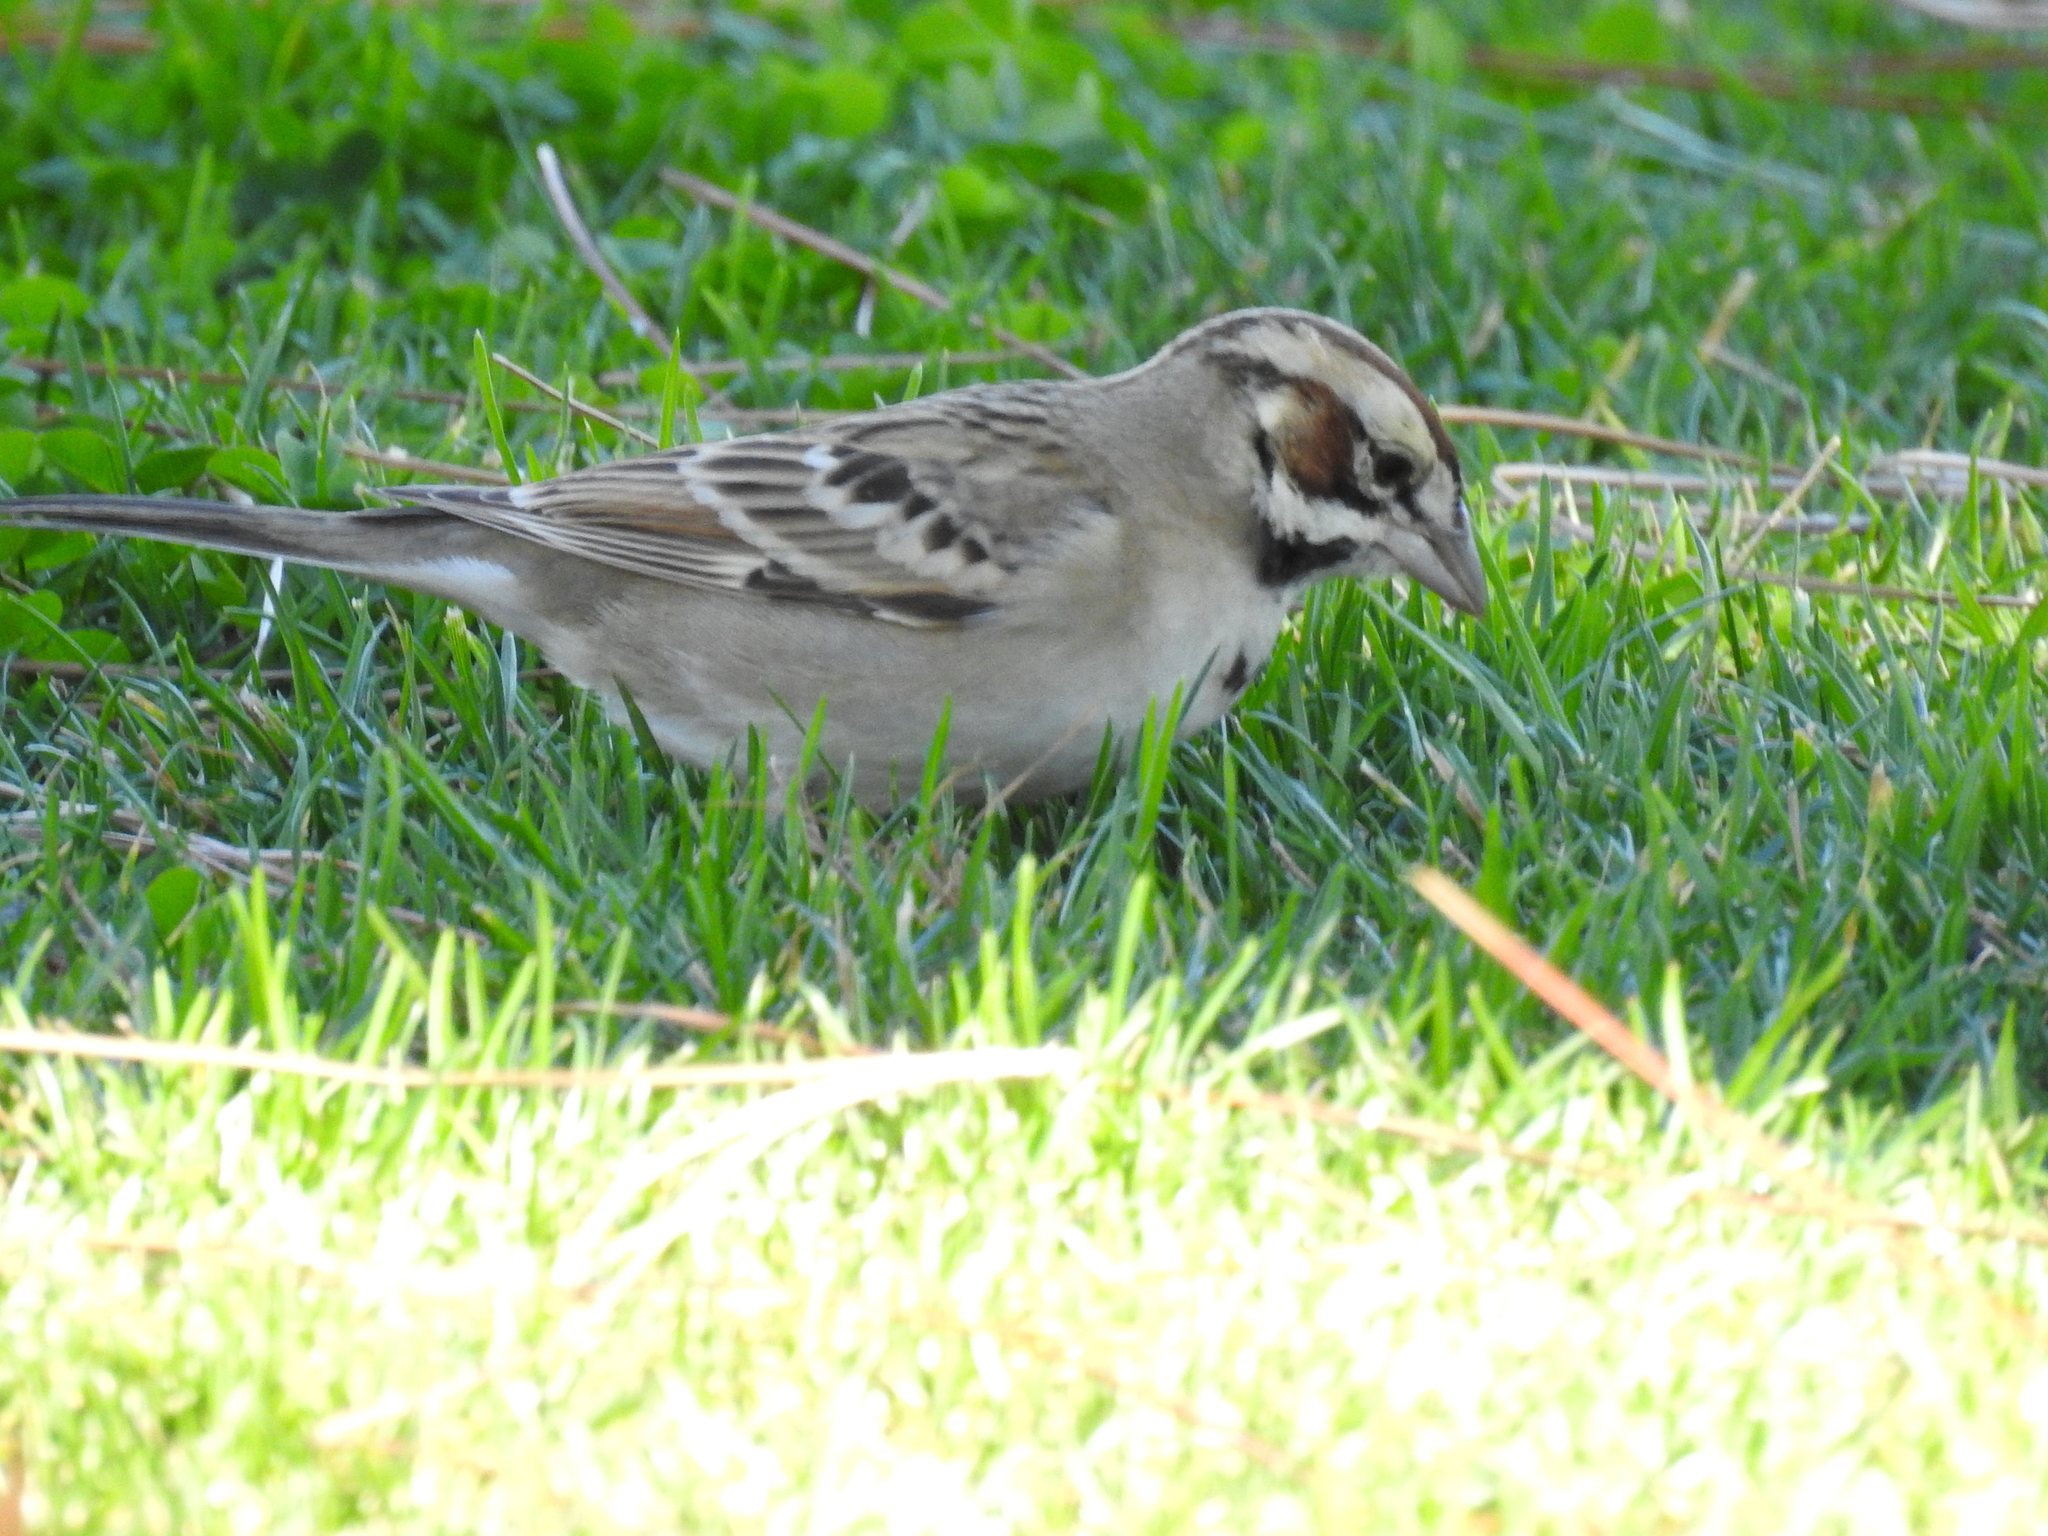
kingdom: Animalia
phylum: Chordata
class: Aves
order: Passeriformes
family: Passerellidae
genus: Chondestes
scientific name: Chondestes grammacus
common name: Lark sparrow
